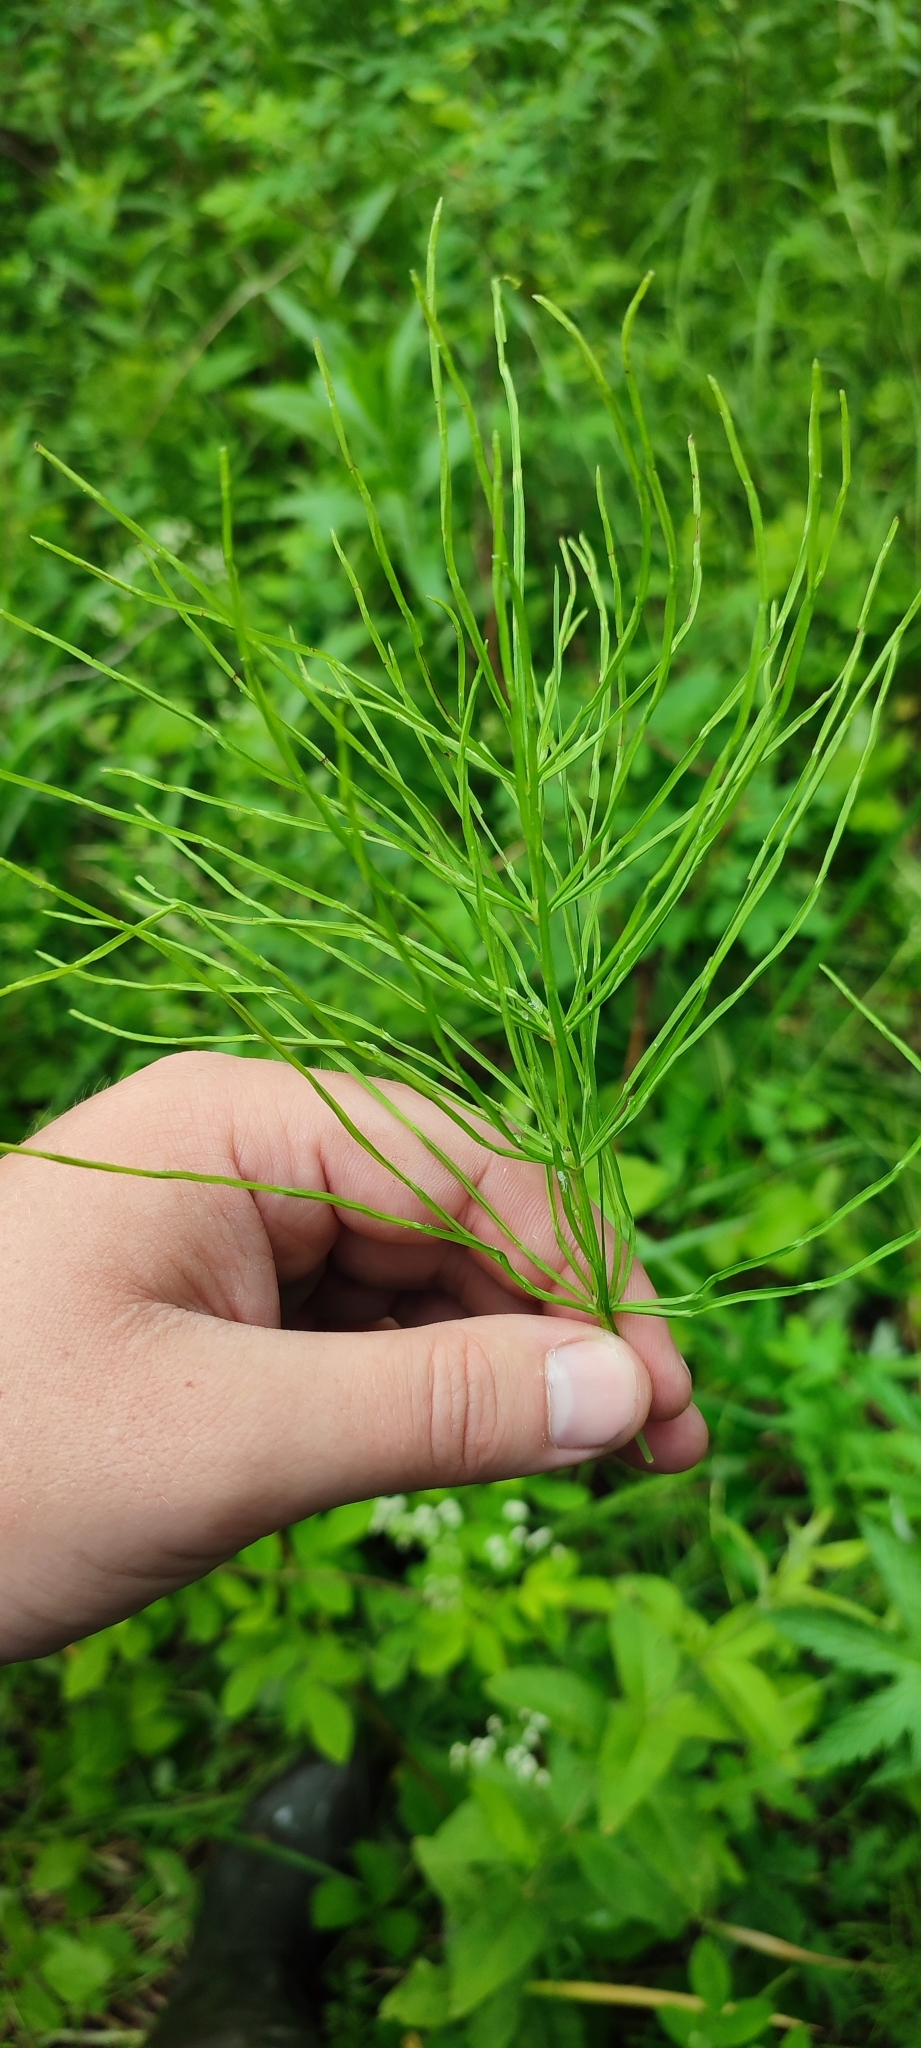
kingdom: Plantae
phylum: Tracheophyta
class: Polypodiopsida
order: Equisetales
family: Equisetaceae
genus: Equisetum
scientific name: Equisetum arvense
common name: Field horsetail
